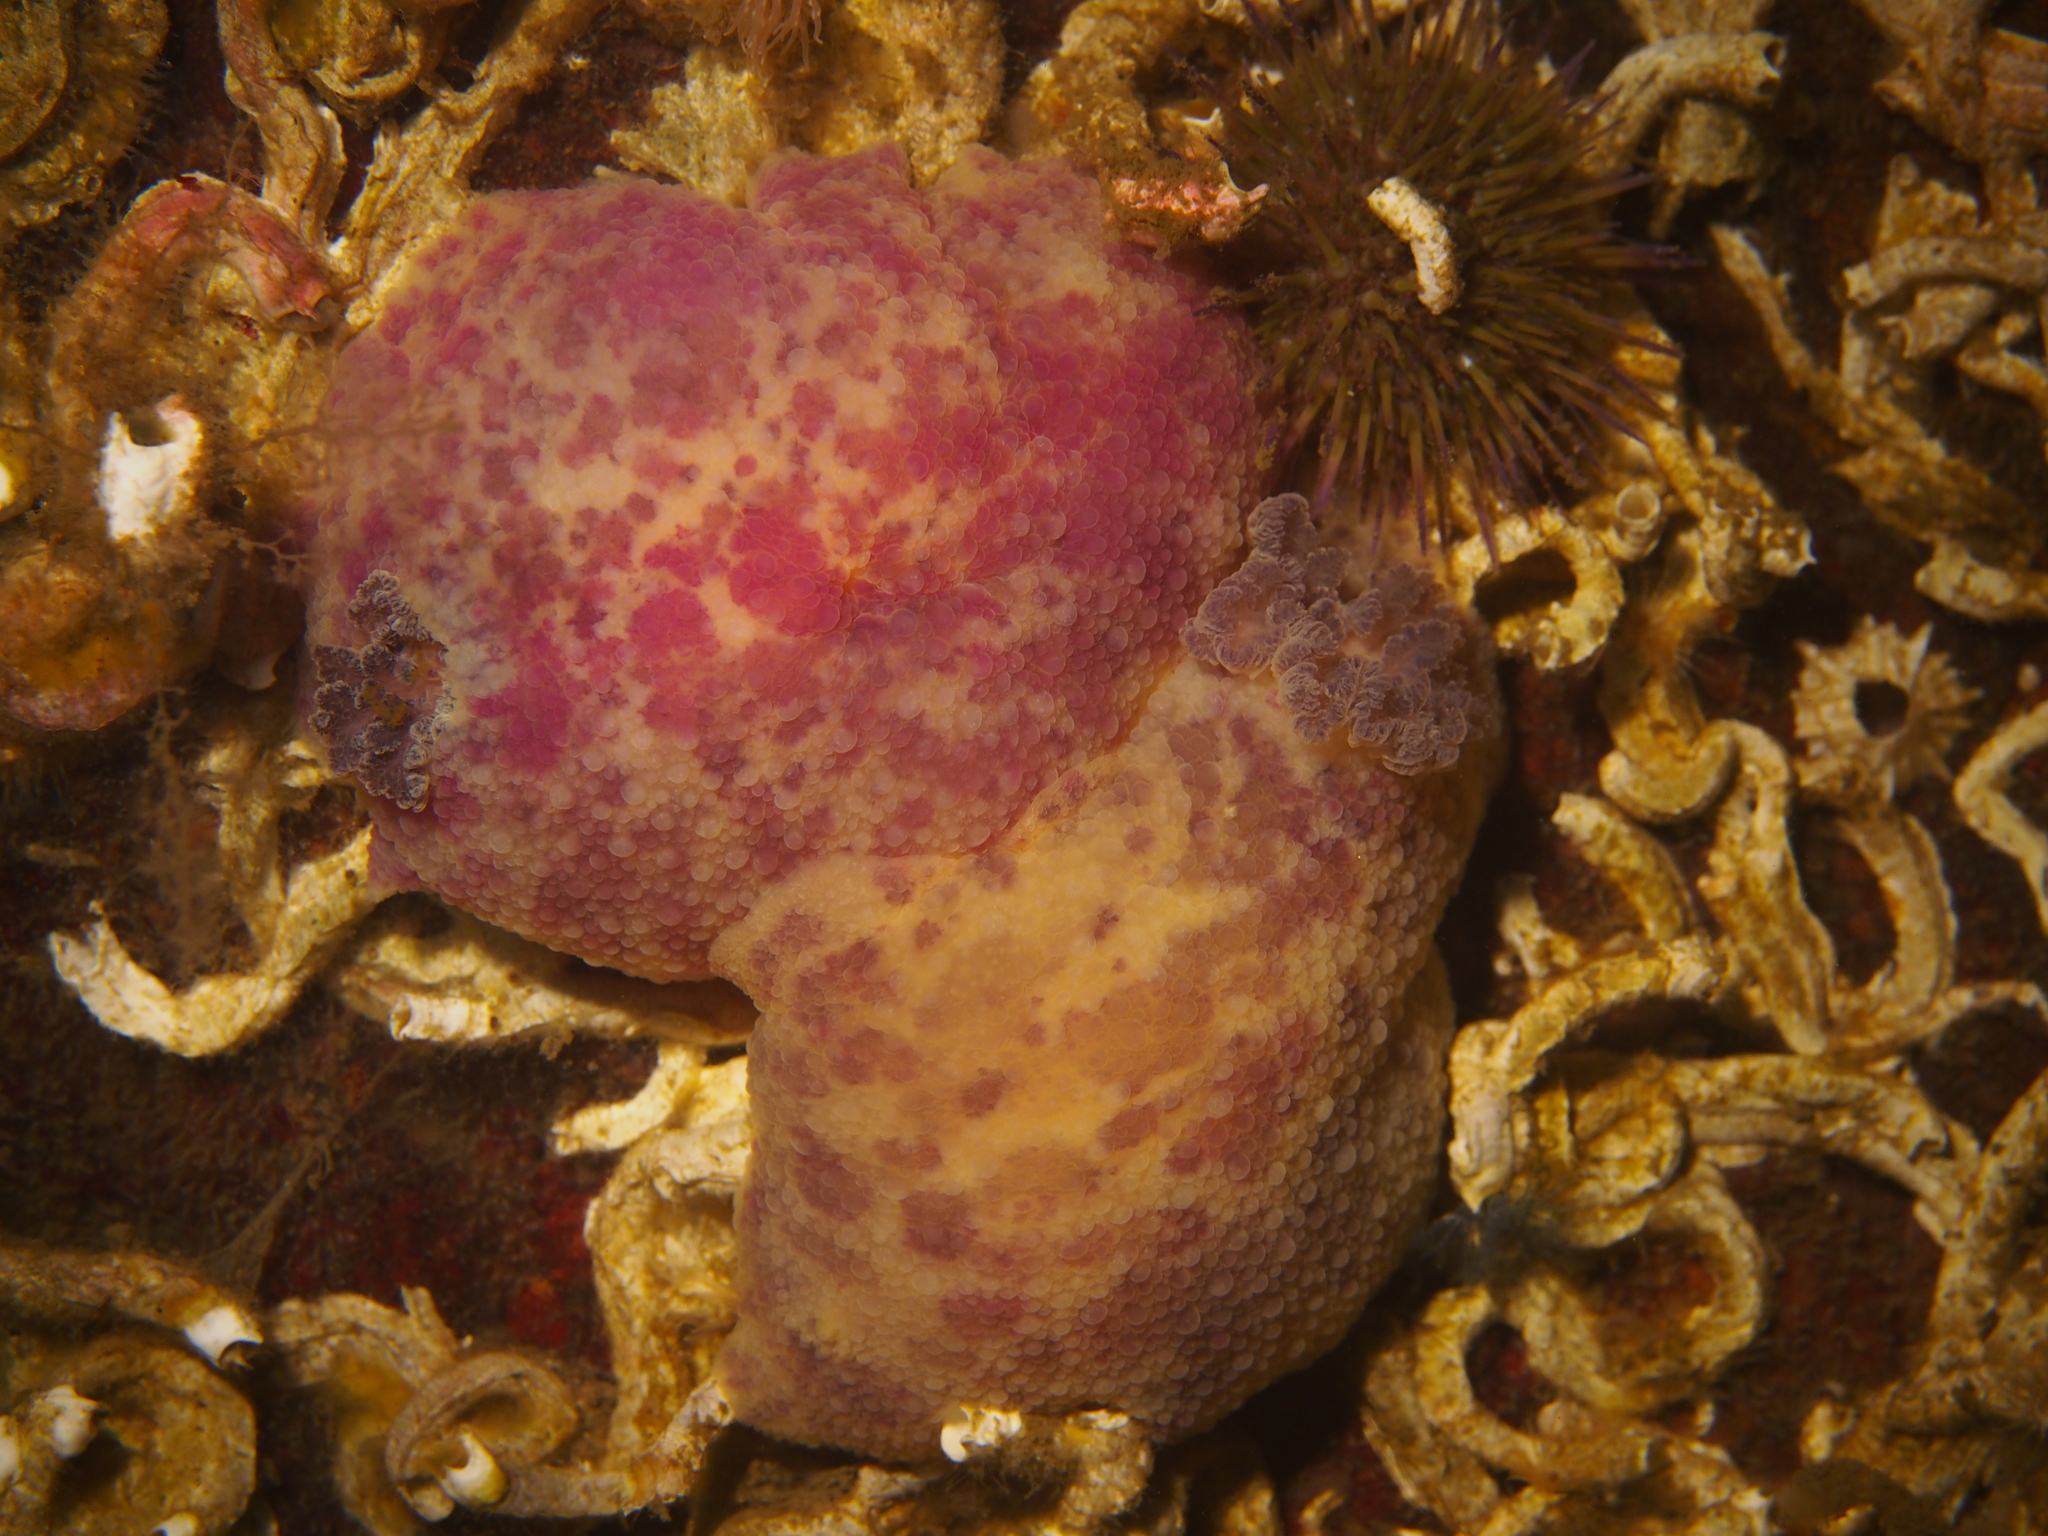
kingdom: Animalia
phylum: Mollusca
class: Gastropoda
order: Nudibranchia
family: Dorididae
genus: Doris
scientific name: Doris pseudoargus
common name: Sea lemon
